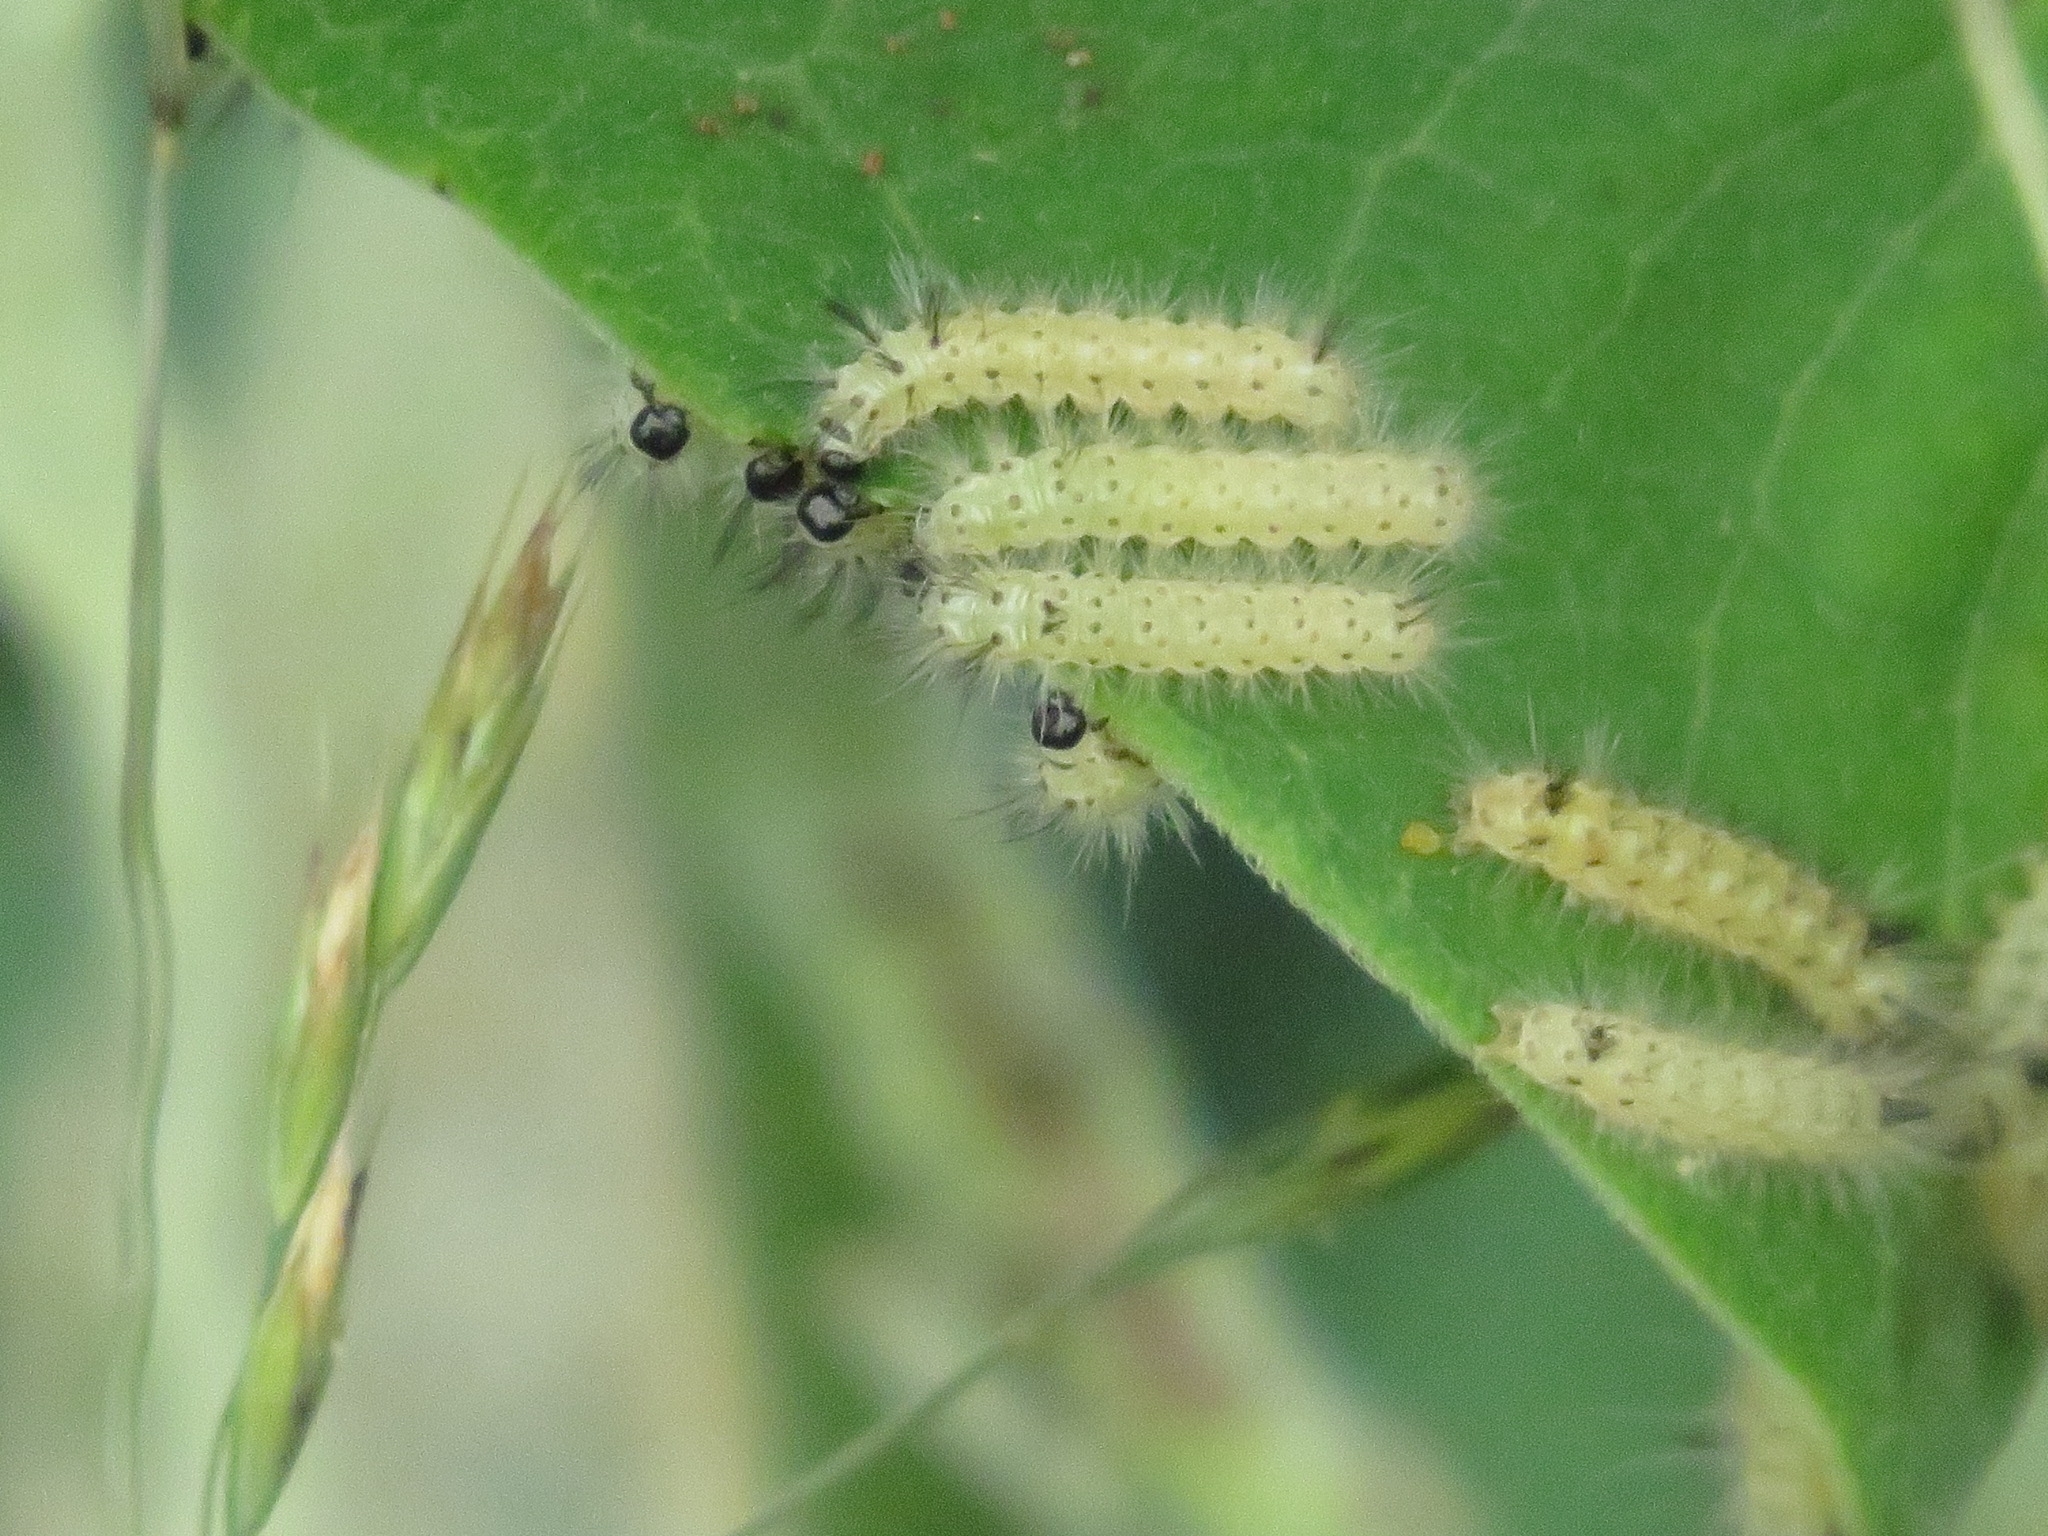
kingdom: Animalia
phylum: Arthropoda
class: Insecta
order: Lepidoptera
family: Erebidae
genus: Euchaetes
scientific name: Euchaetes egle
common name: Milkweed tussock moth
